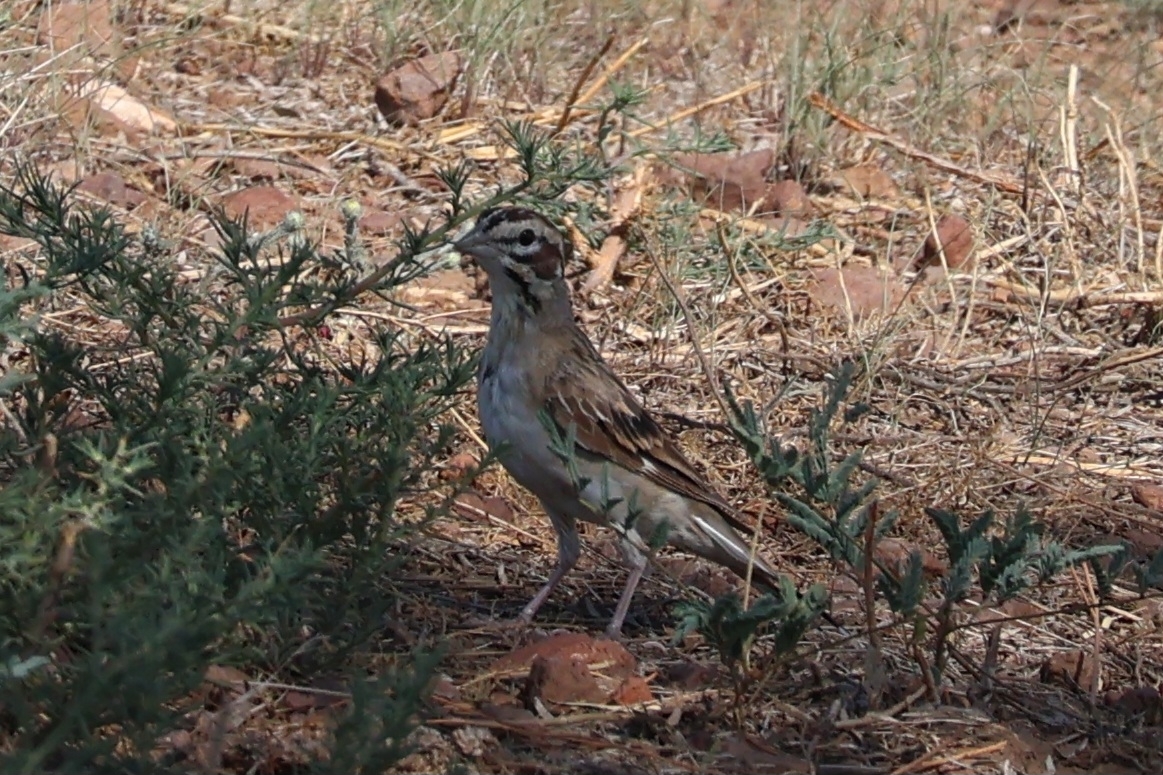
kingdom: Animalia
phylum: Chordata
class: Aves
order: Passeriformes
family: Passerellidae
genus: Chondestes
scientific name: Chondestes grammacus
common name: Lark sparrow
